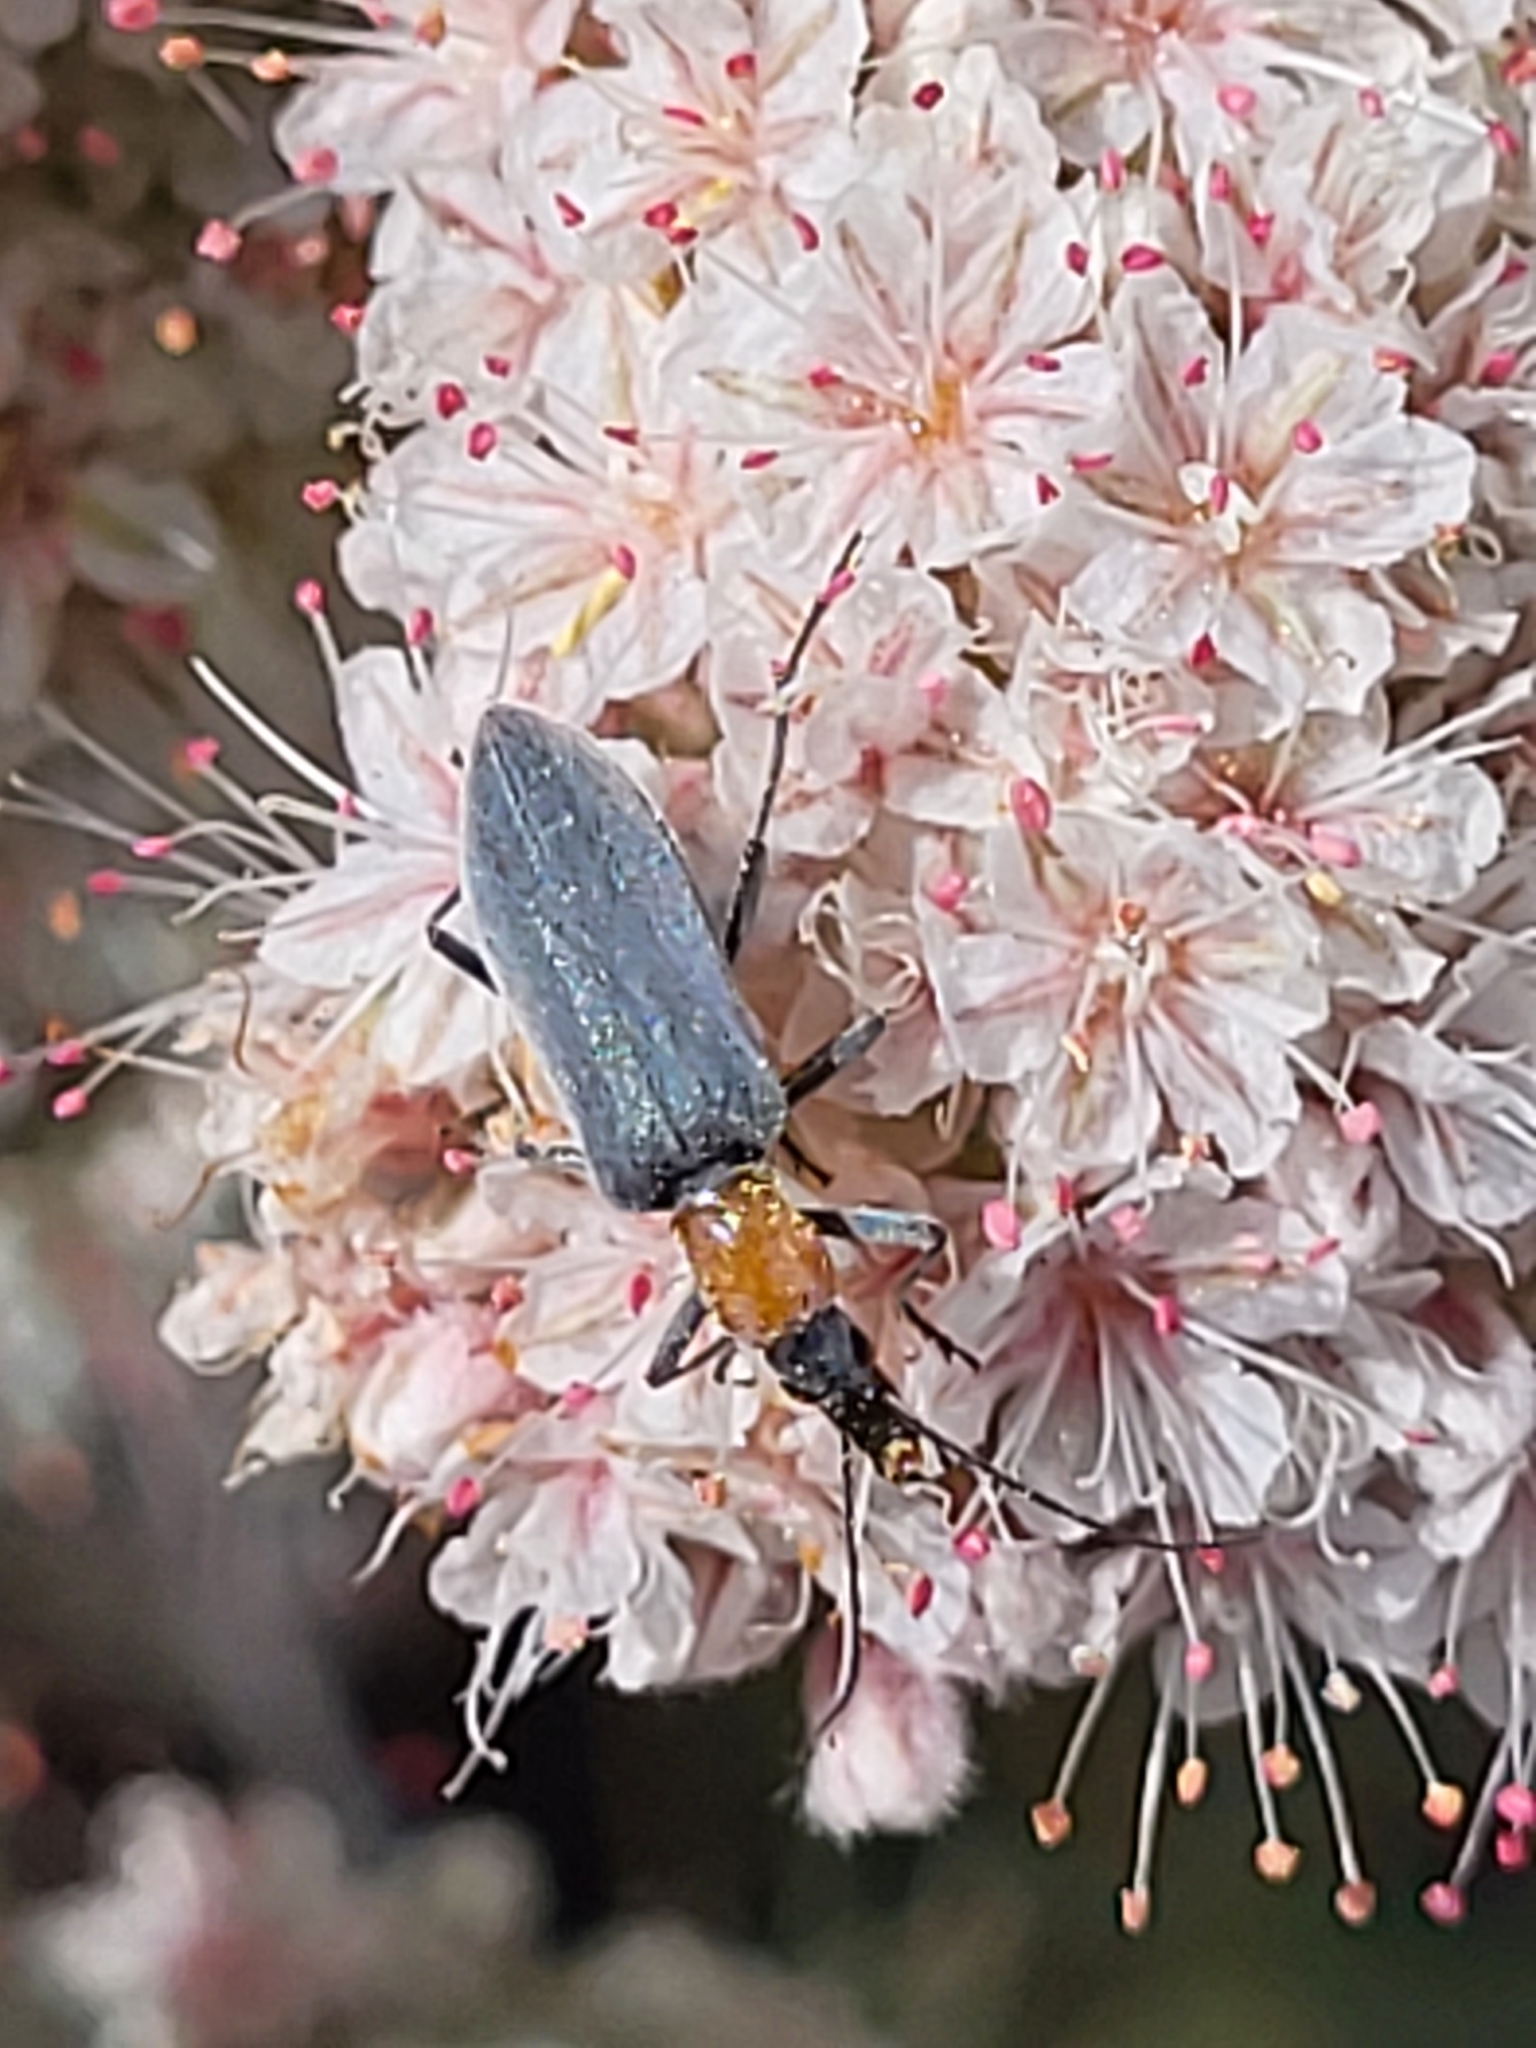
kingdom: Animalia
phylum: Arthropoda
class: Insecta
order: Coleoptera
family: Oedemeridae
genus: Rhinoplatia
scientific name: Rhinoplatia ruficollis
